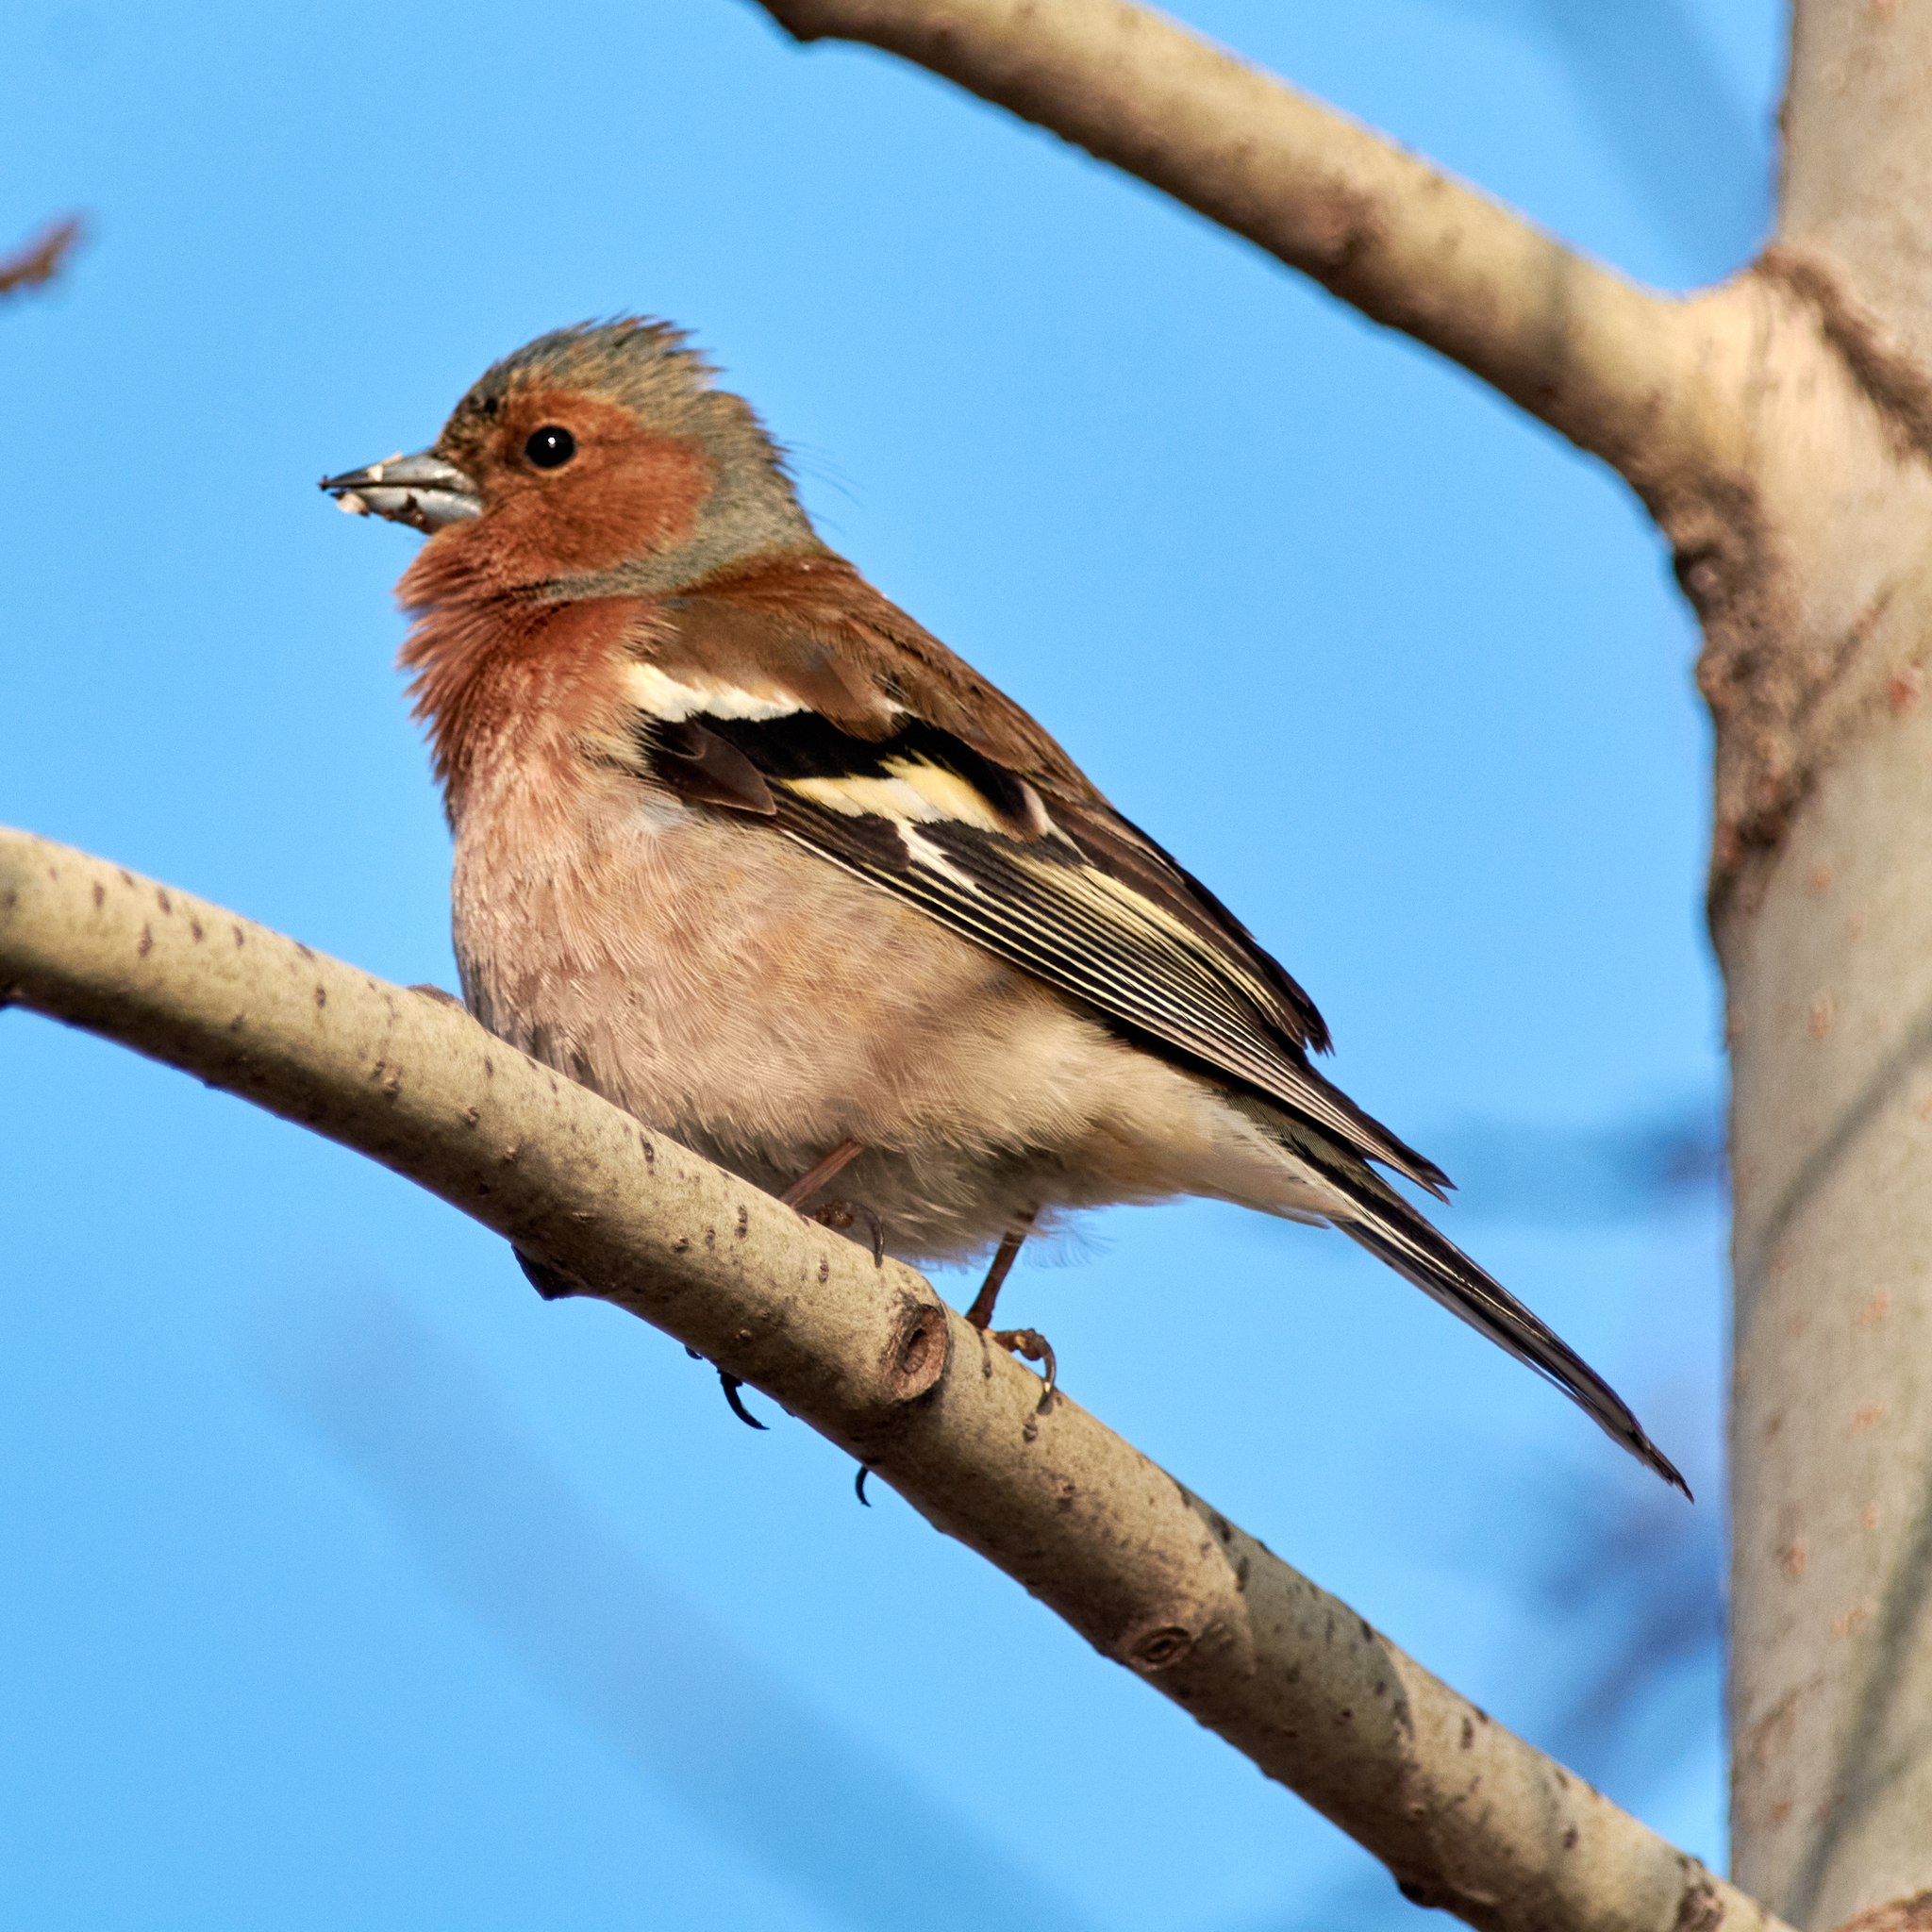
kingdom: Animalia
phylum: Chordata
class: Aves
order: Passeriformes
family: Fringillidae
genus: Fringilla
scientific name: Fringilla coelebs
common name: Common chaffinch
